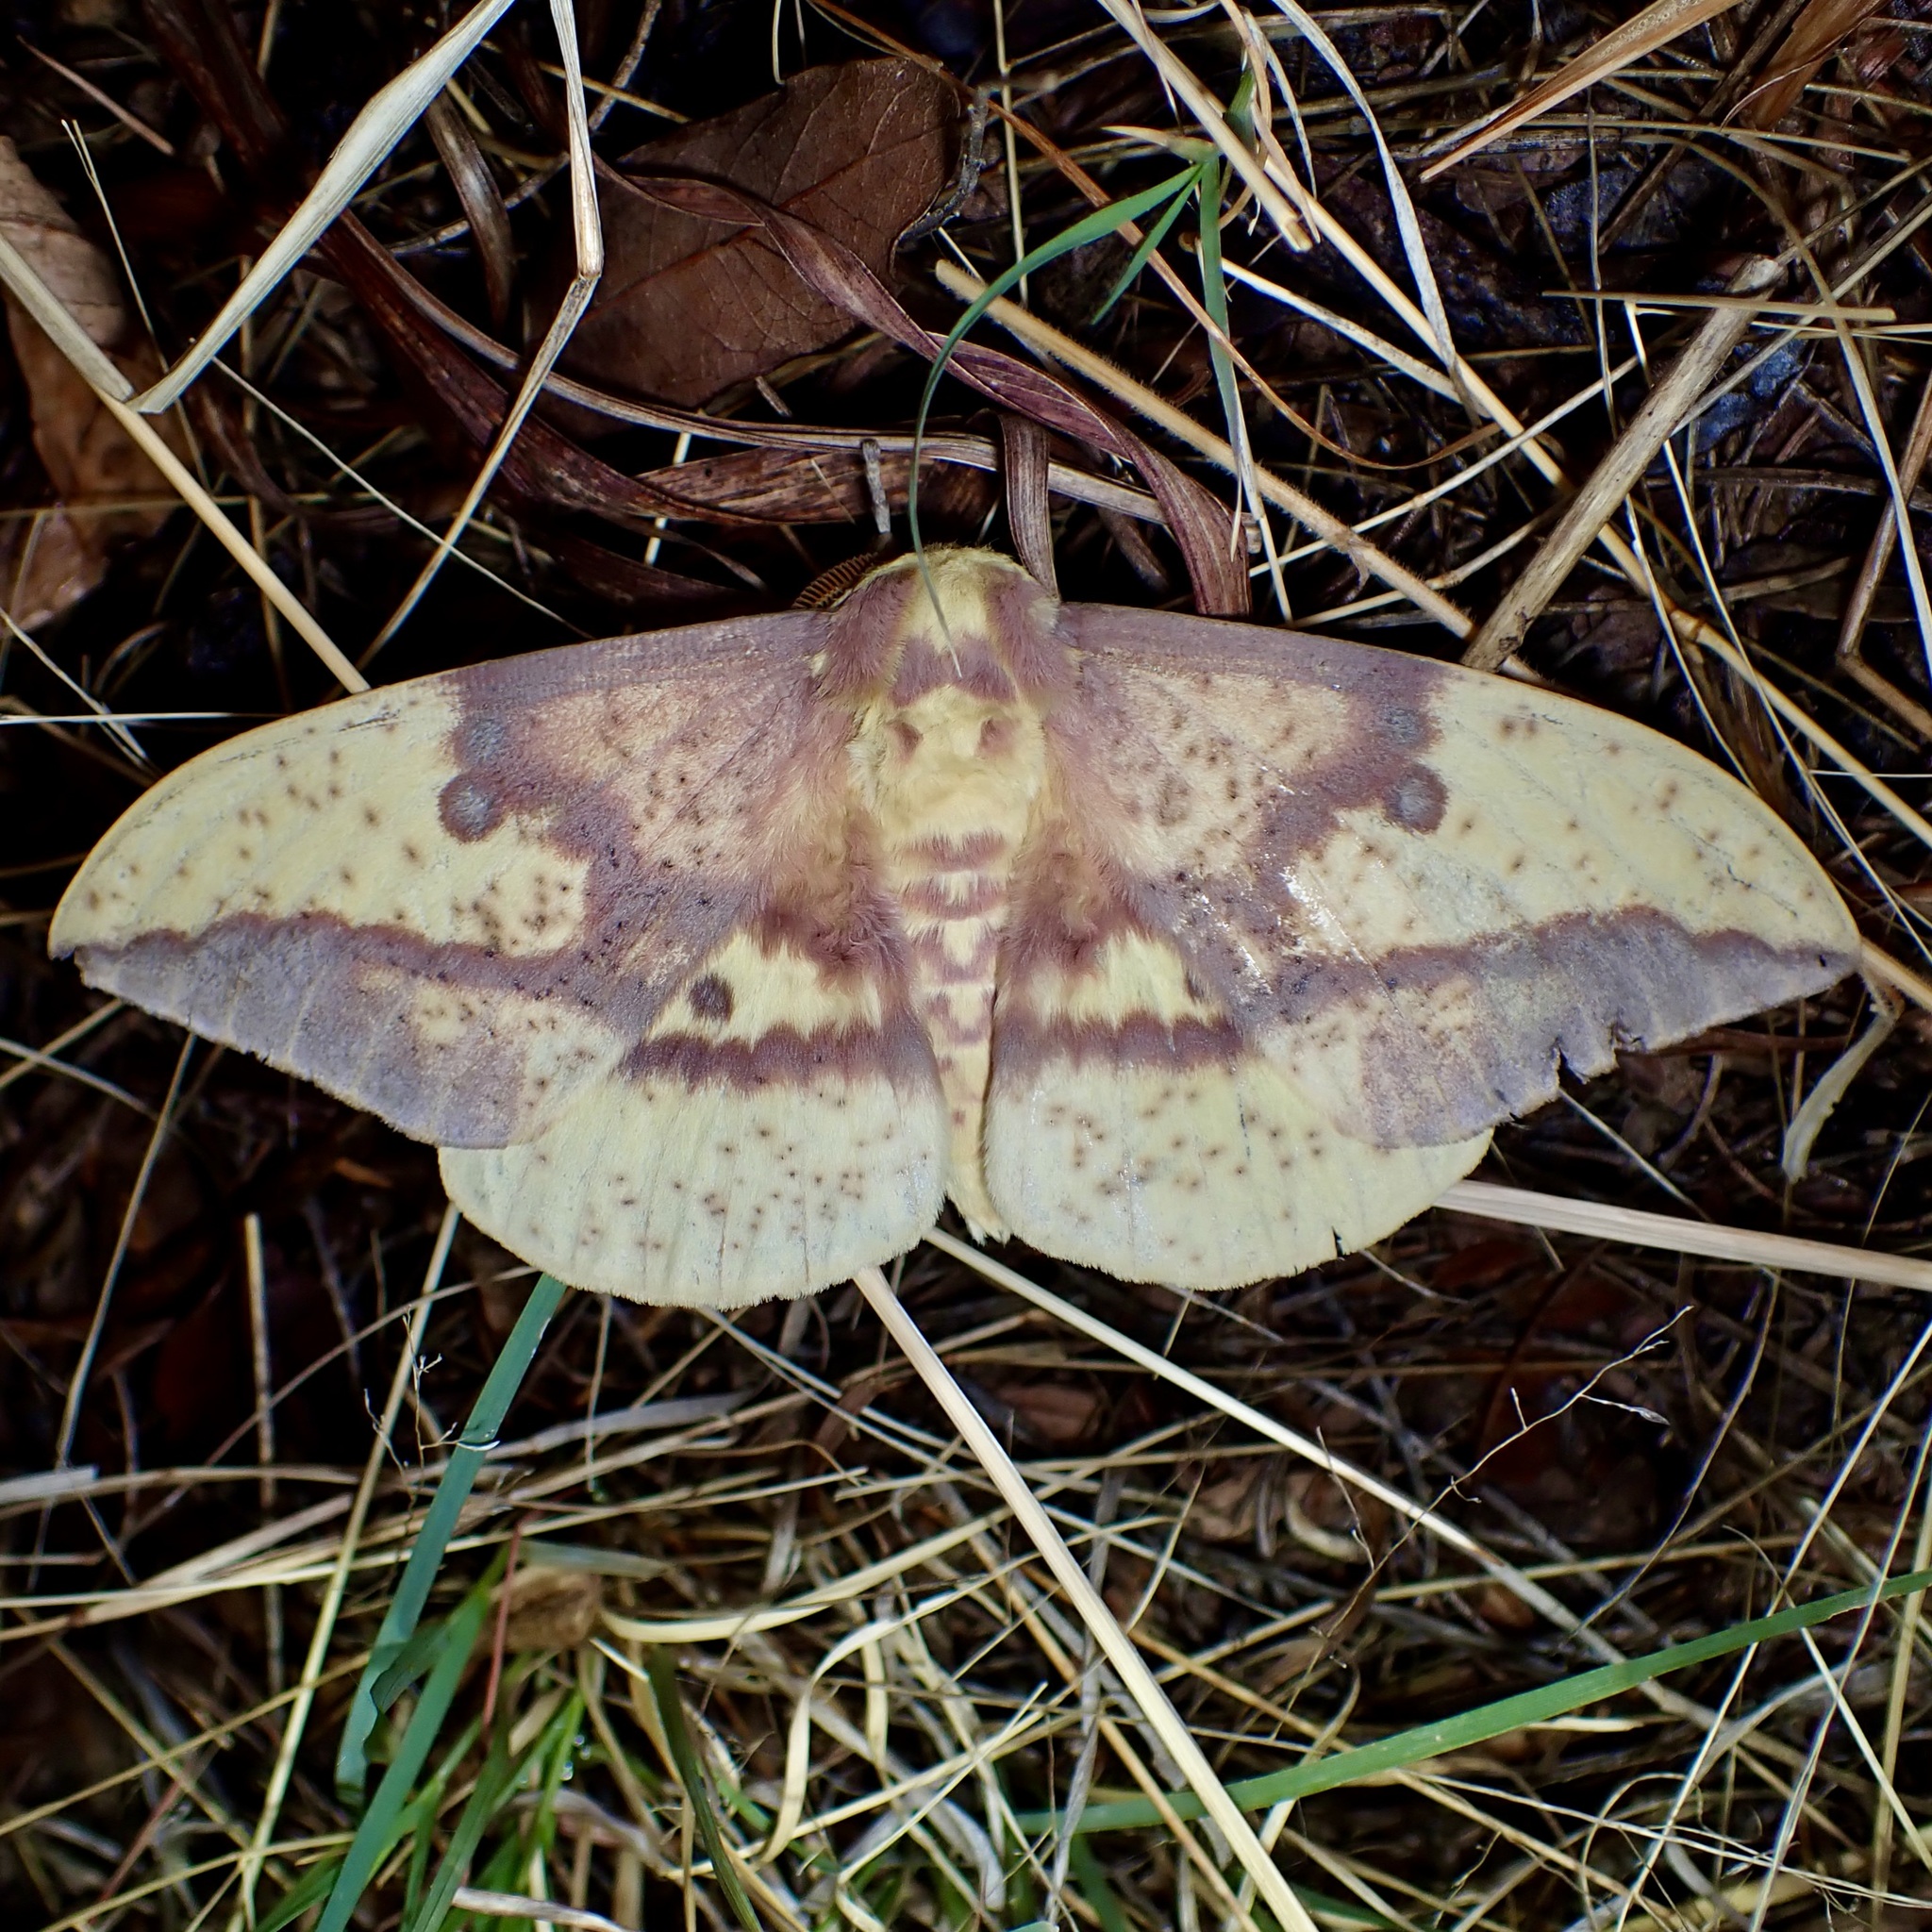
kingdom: Animalia
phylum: Arthropoda
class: Insecta
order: Lepidoptera
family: Saturniidae
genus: Eacles
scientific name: Eacles oslari
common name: Oslar's imperial moth
